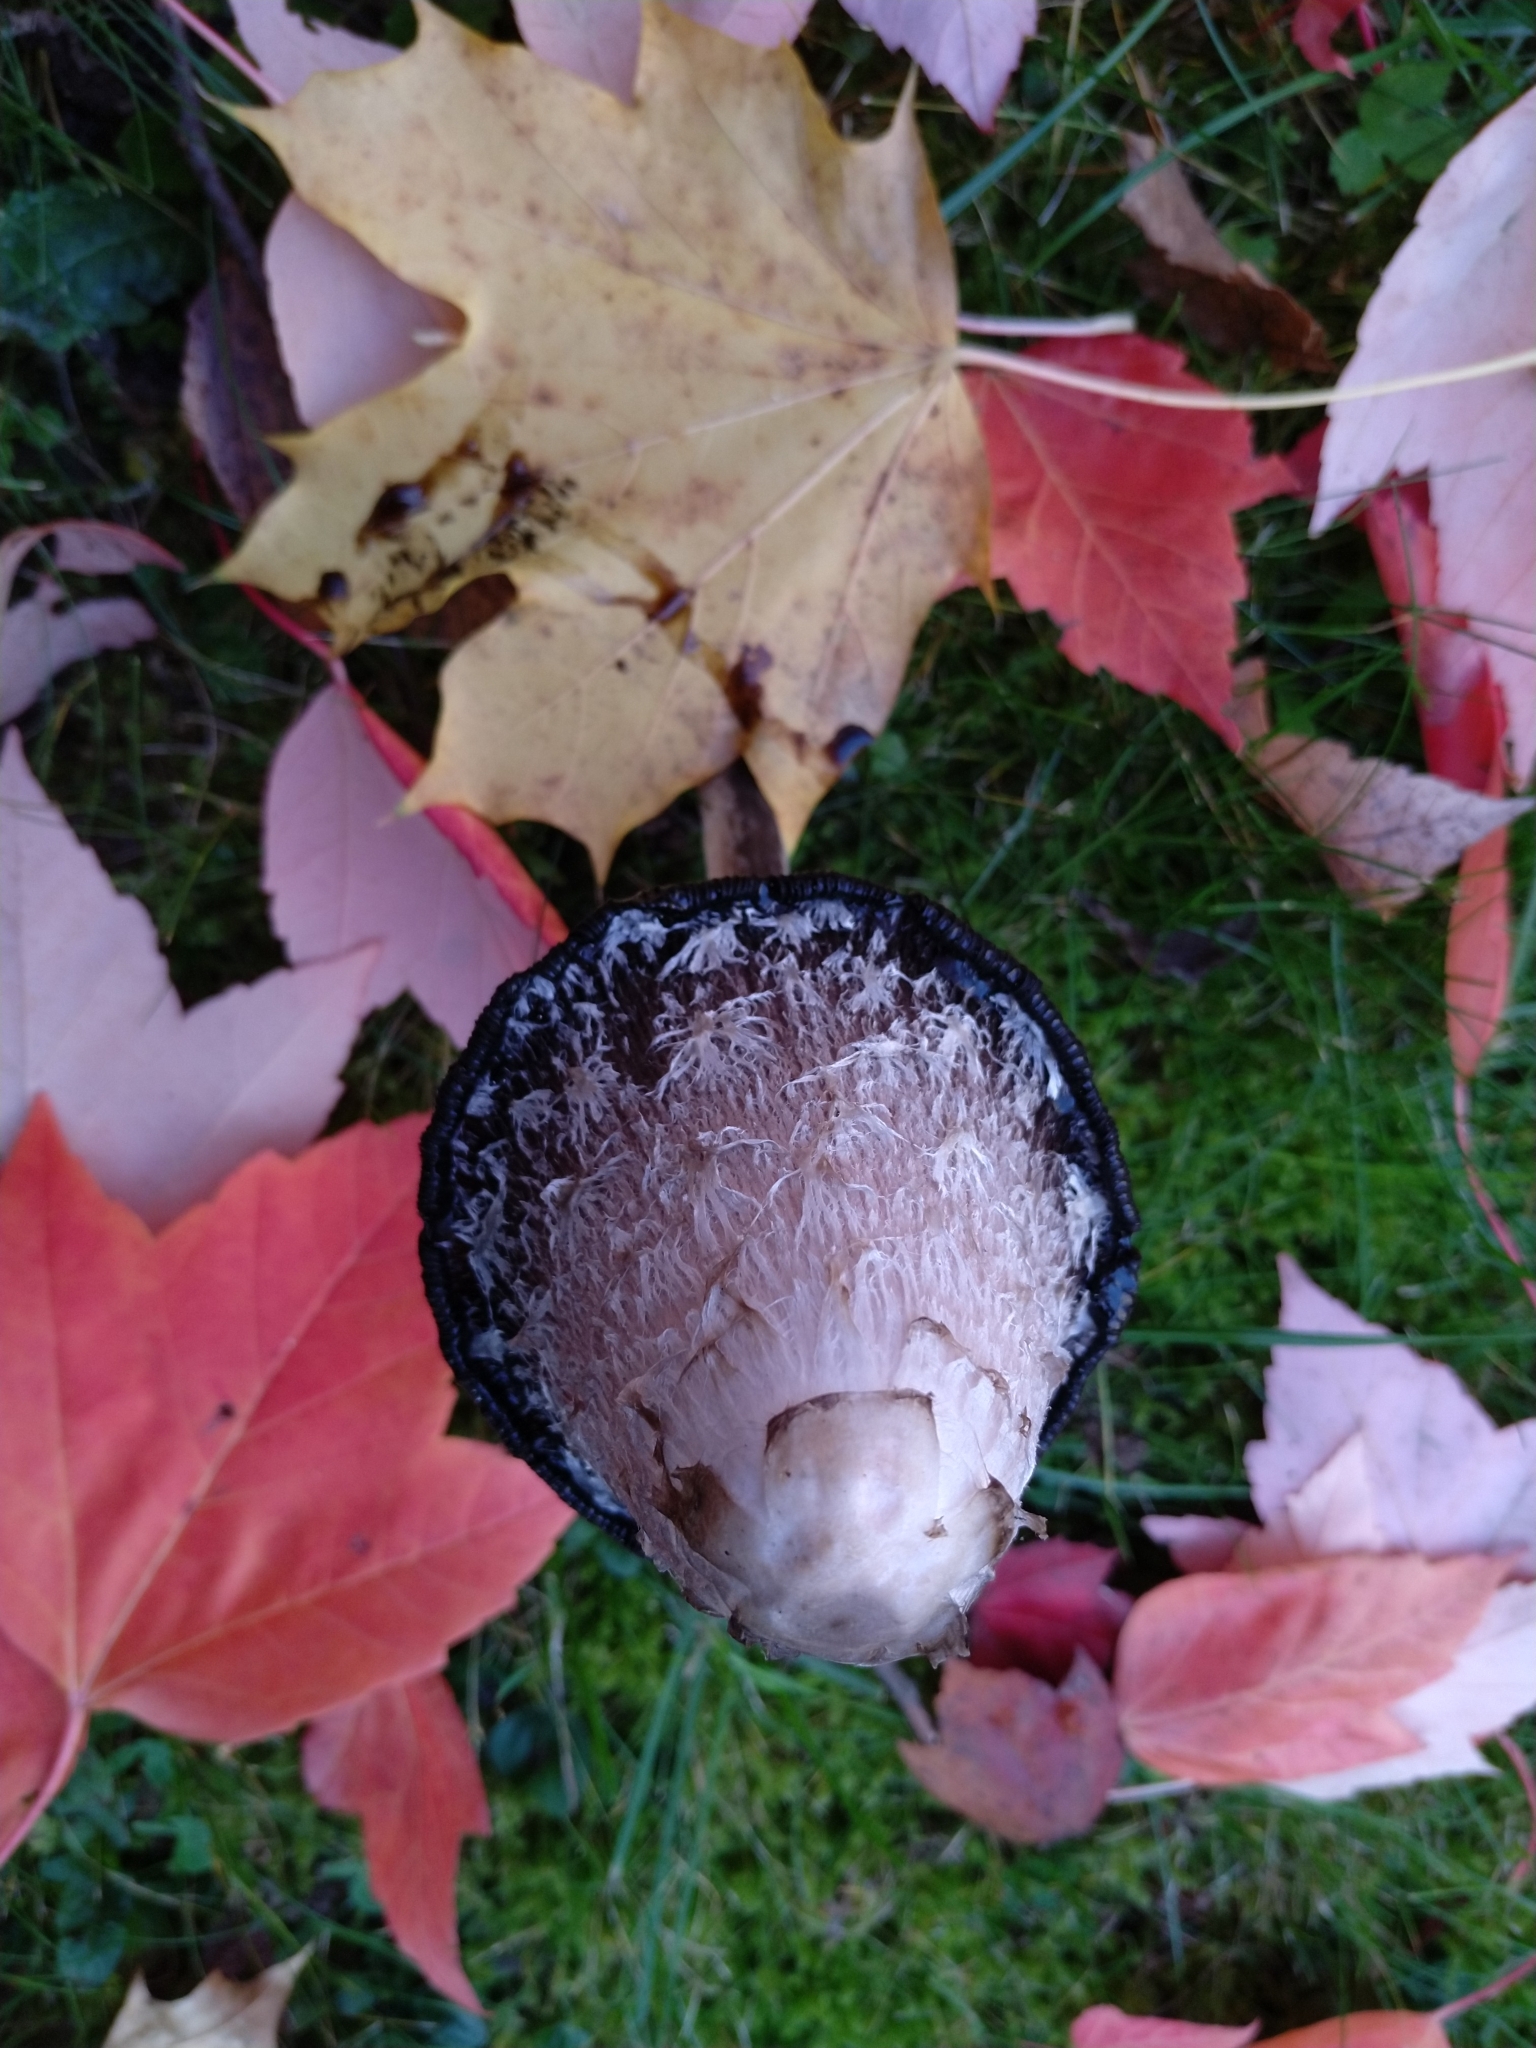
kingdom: Fungi
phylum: Basidiomycota
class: Agaricomycetes
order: Agaricales
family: Agaricaceae
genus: Coprinus
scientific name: Coprinus comatus
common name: Lawyer's wig
